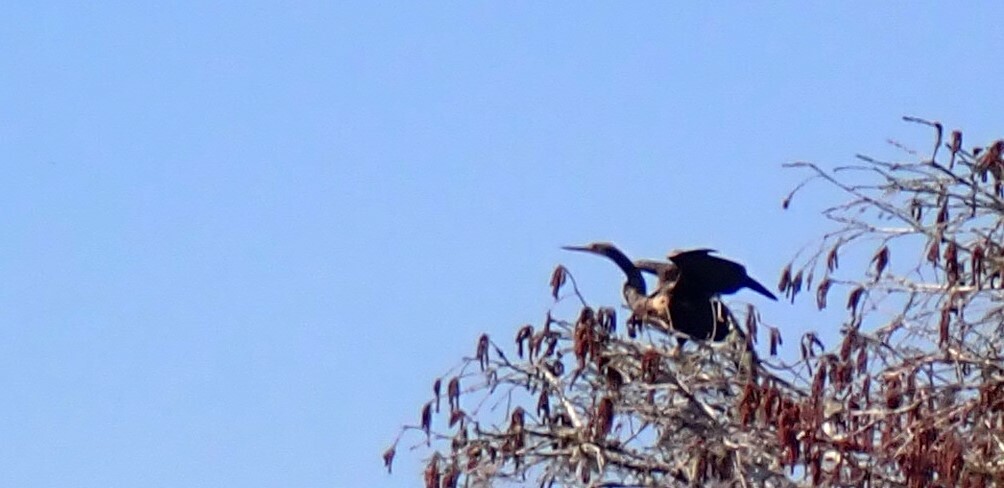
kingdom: Animalia
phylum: Chordata
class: Aves
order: Suliformes
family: Anhingidae
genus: Anhinga
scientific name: Anhinga anhinga
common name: Anhinga
